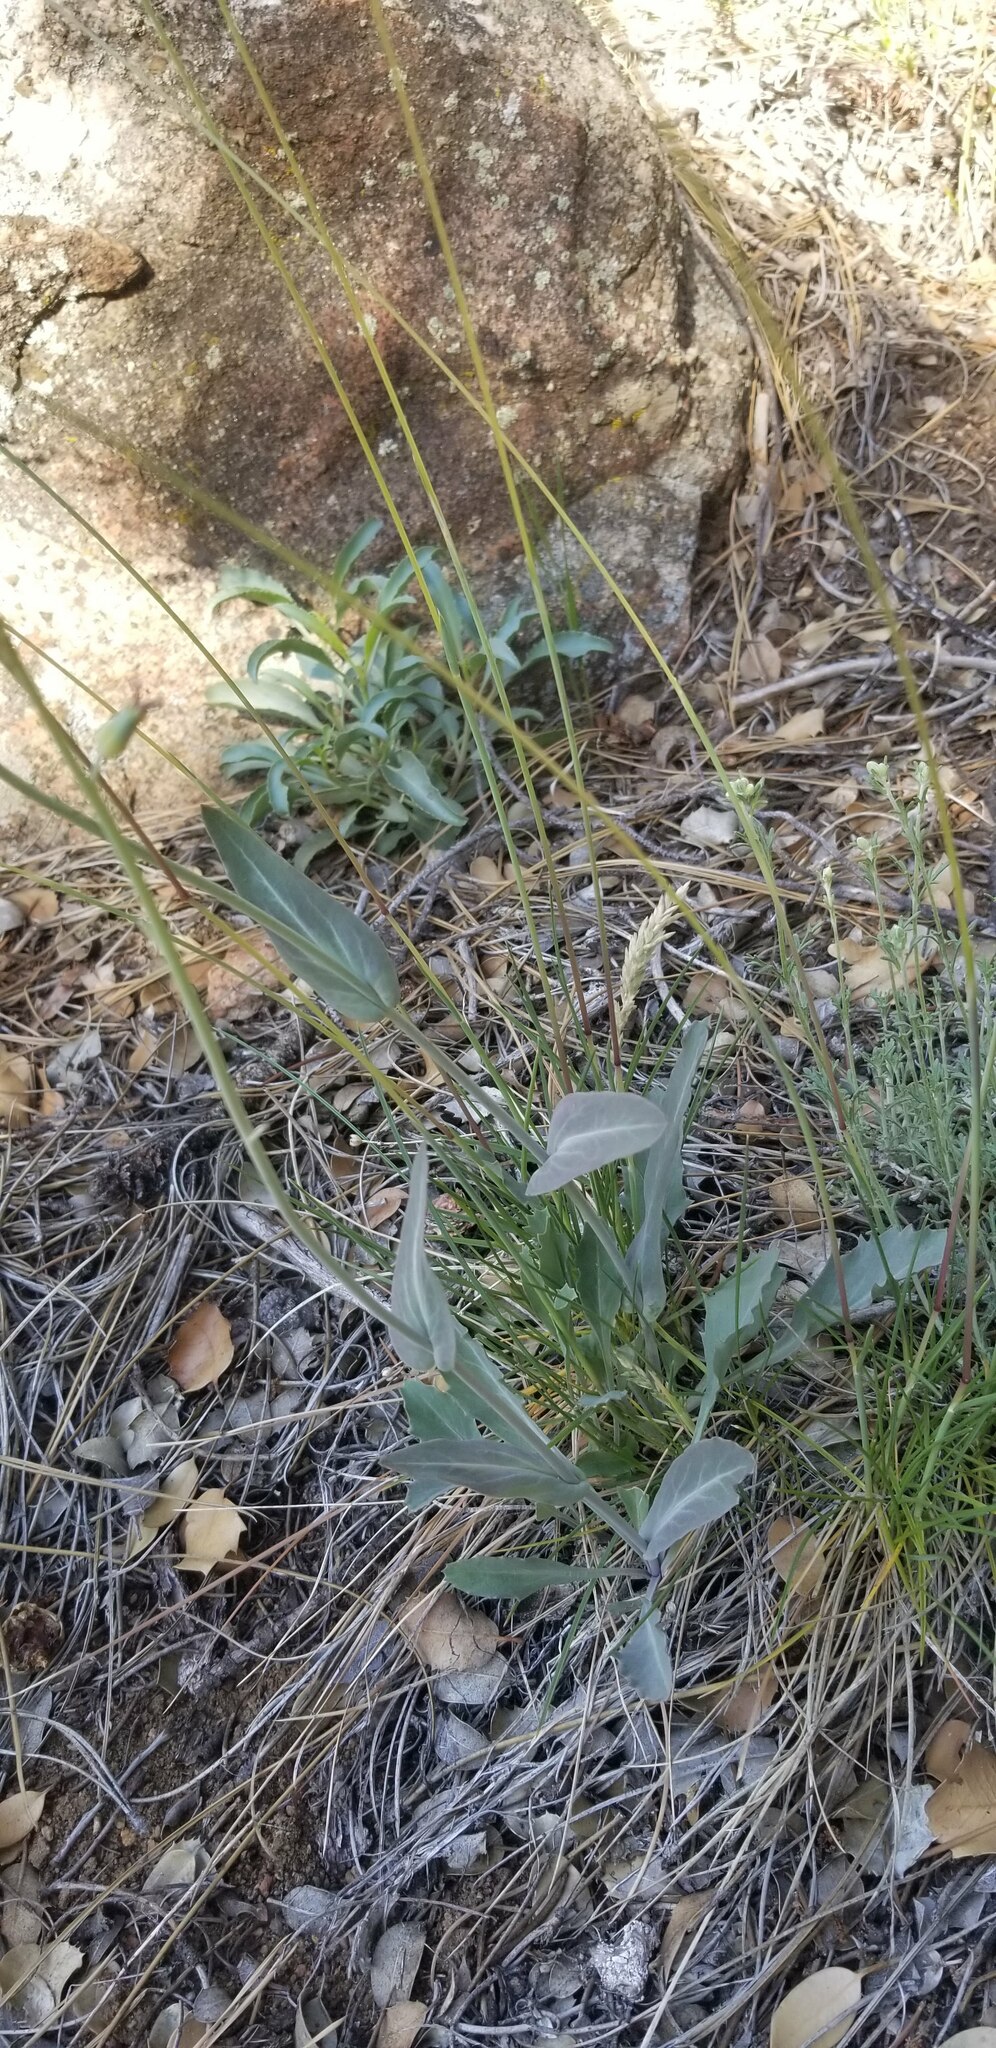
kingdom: Plantae
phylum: Tracheophyta
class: Magnoliopsida
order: Brassicales
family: Brassicaceae
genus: Streptanthus
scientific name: Streptanthus cordatus
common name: Heart-leaf jewel-flower
